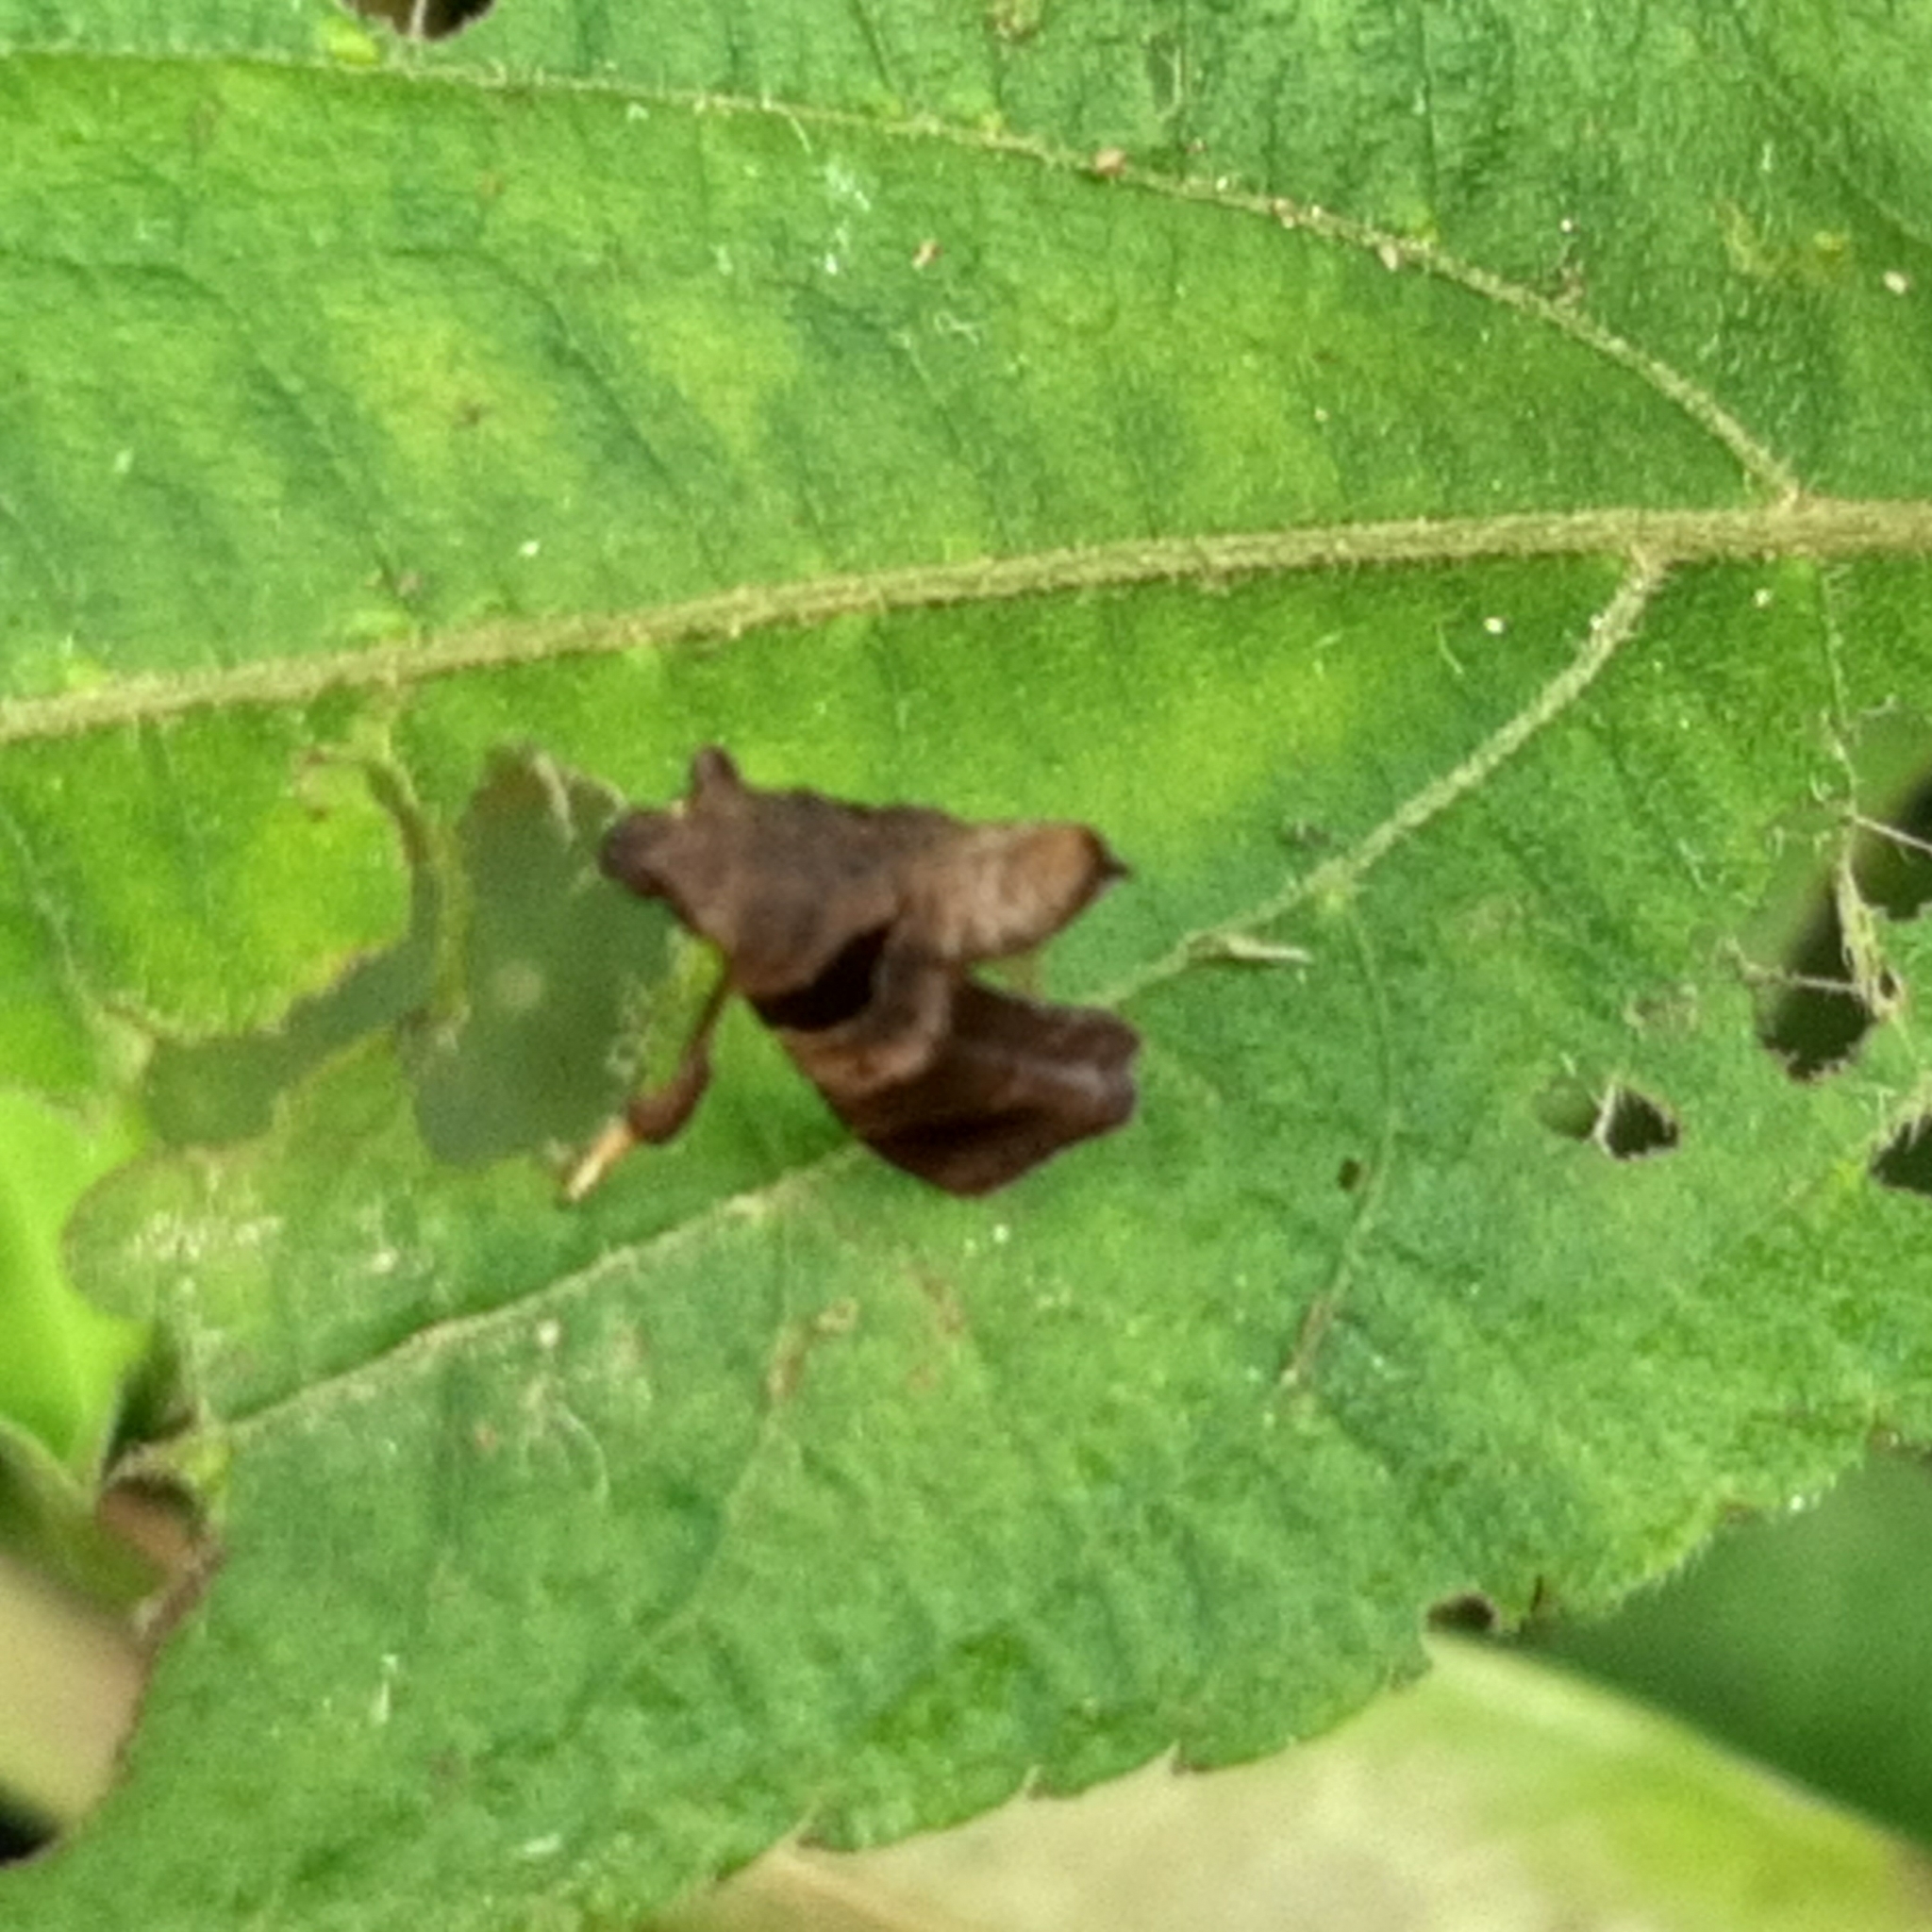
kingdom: Animalia
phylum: Arthropoda
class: Insecta
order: Lepidoptera
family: Pyralidae
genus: Tosale
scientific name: Tosale oviplagalis
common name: Dimorphic tosale moth
